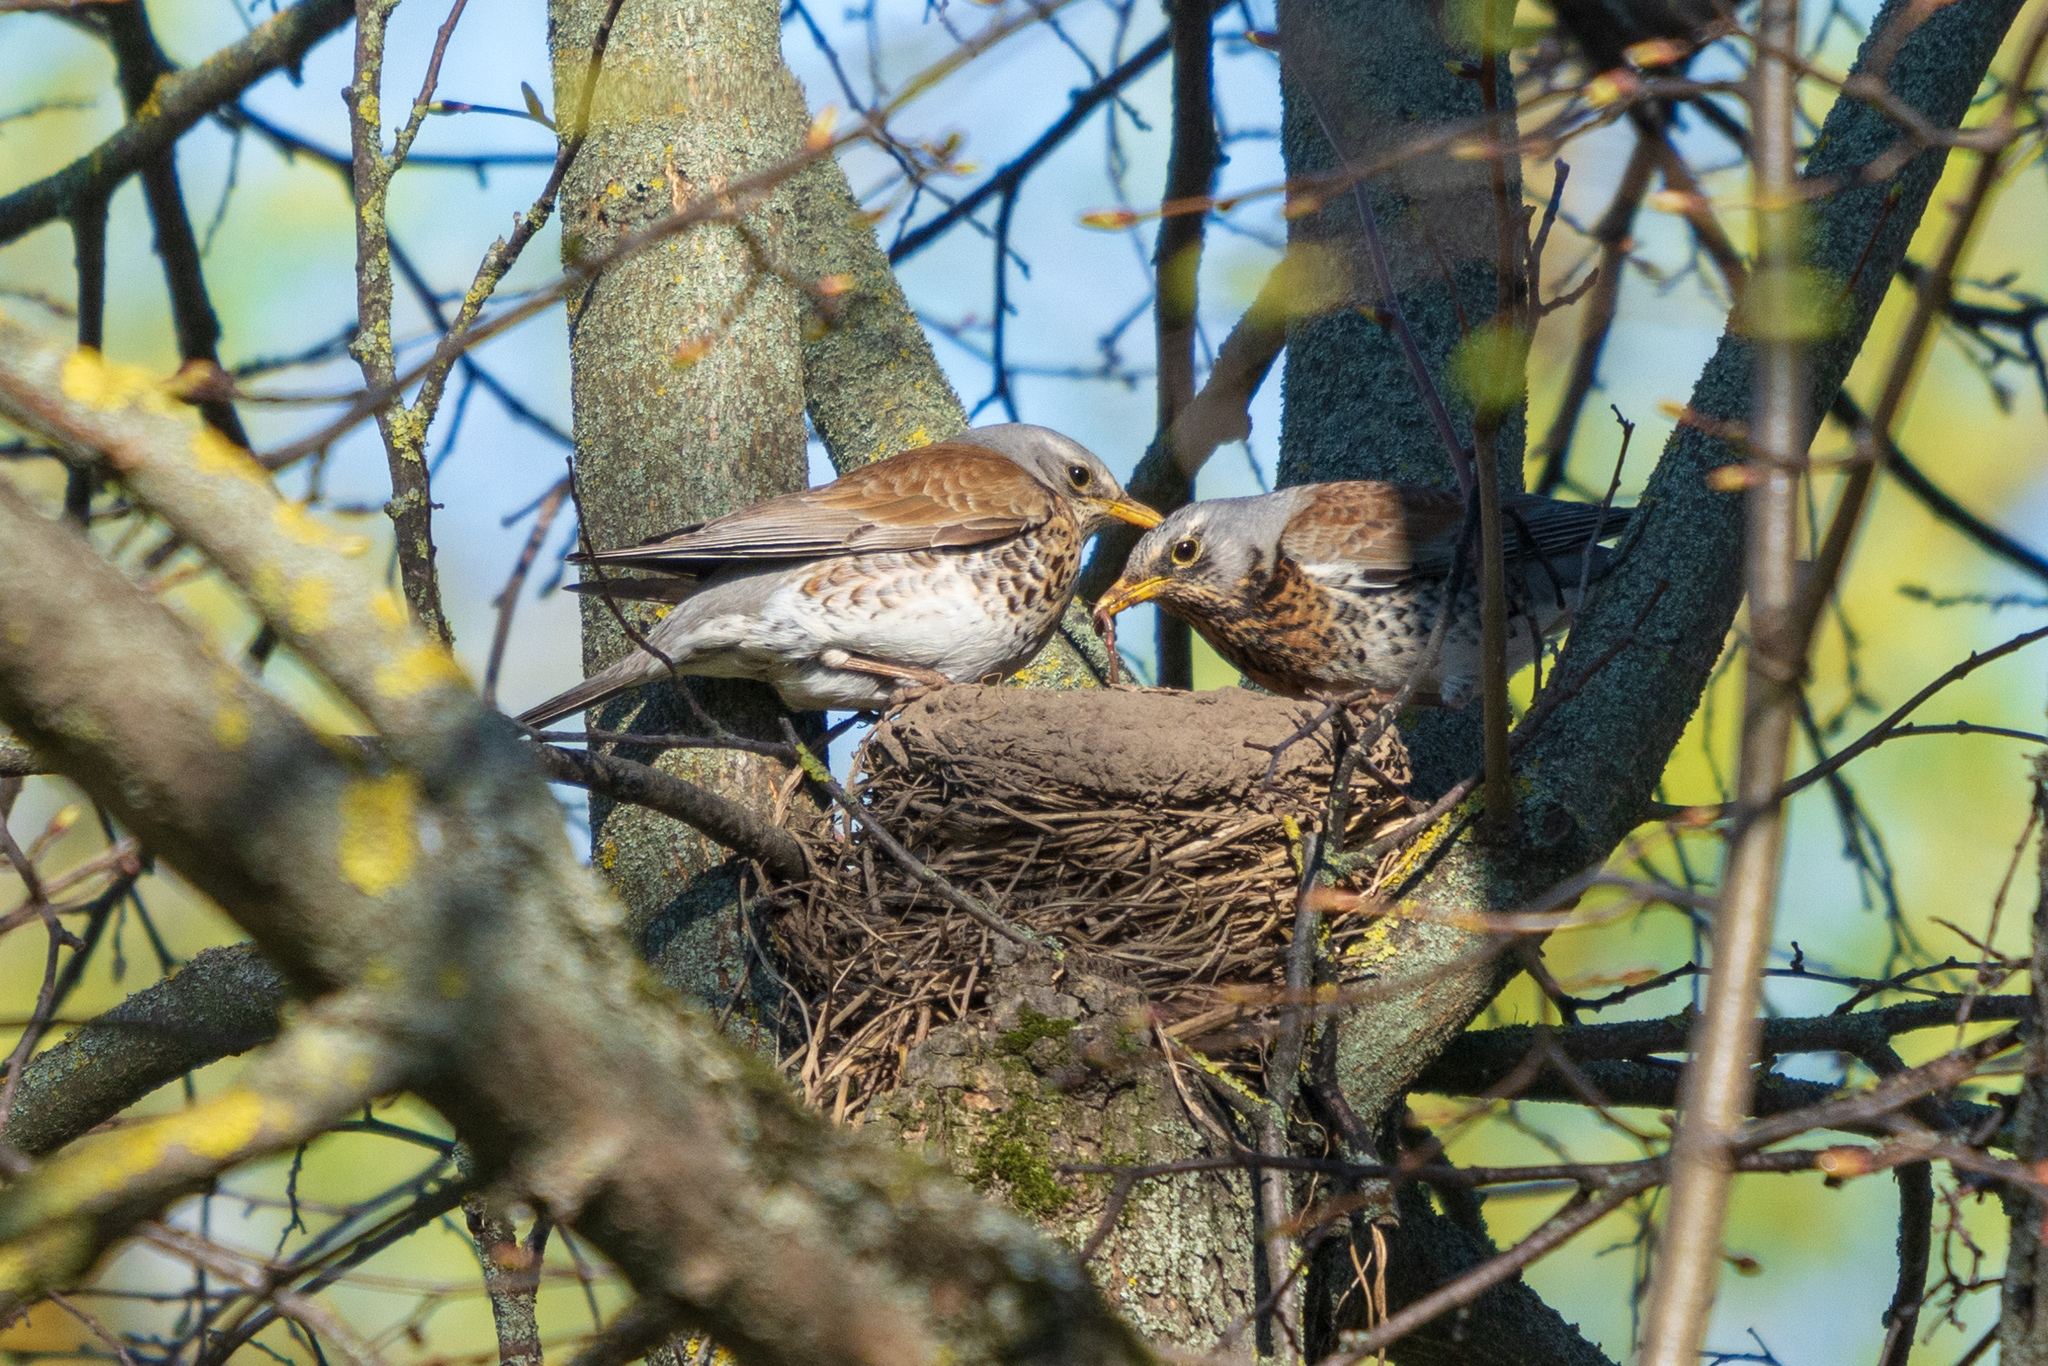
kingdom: Animalia
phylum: Chordata
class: Aves
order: Passeriformes
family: Turdidae
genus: Turdus
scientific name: Turdus pilaris
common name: Fieldfare
